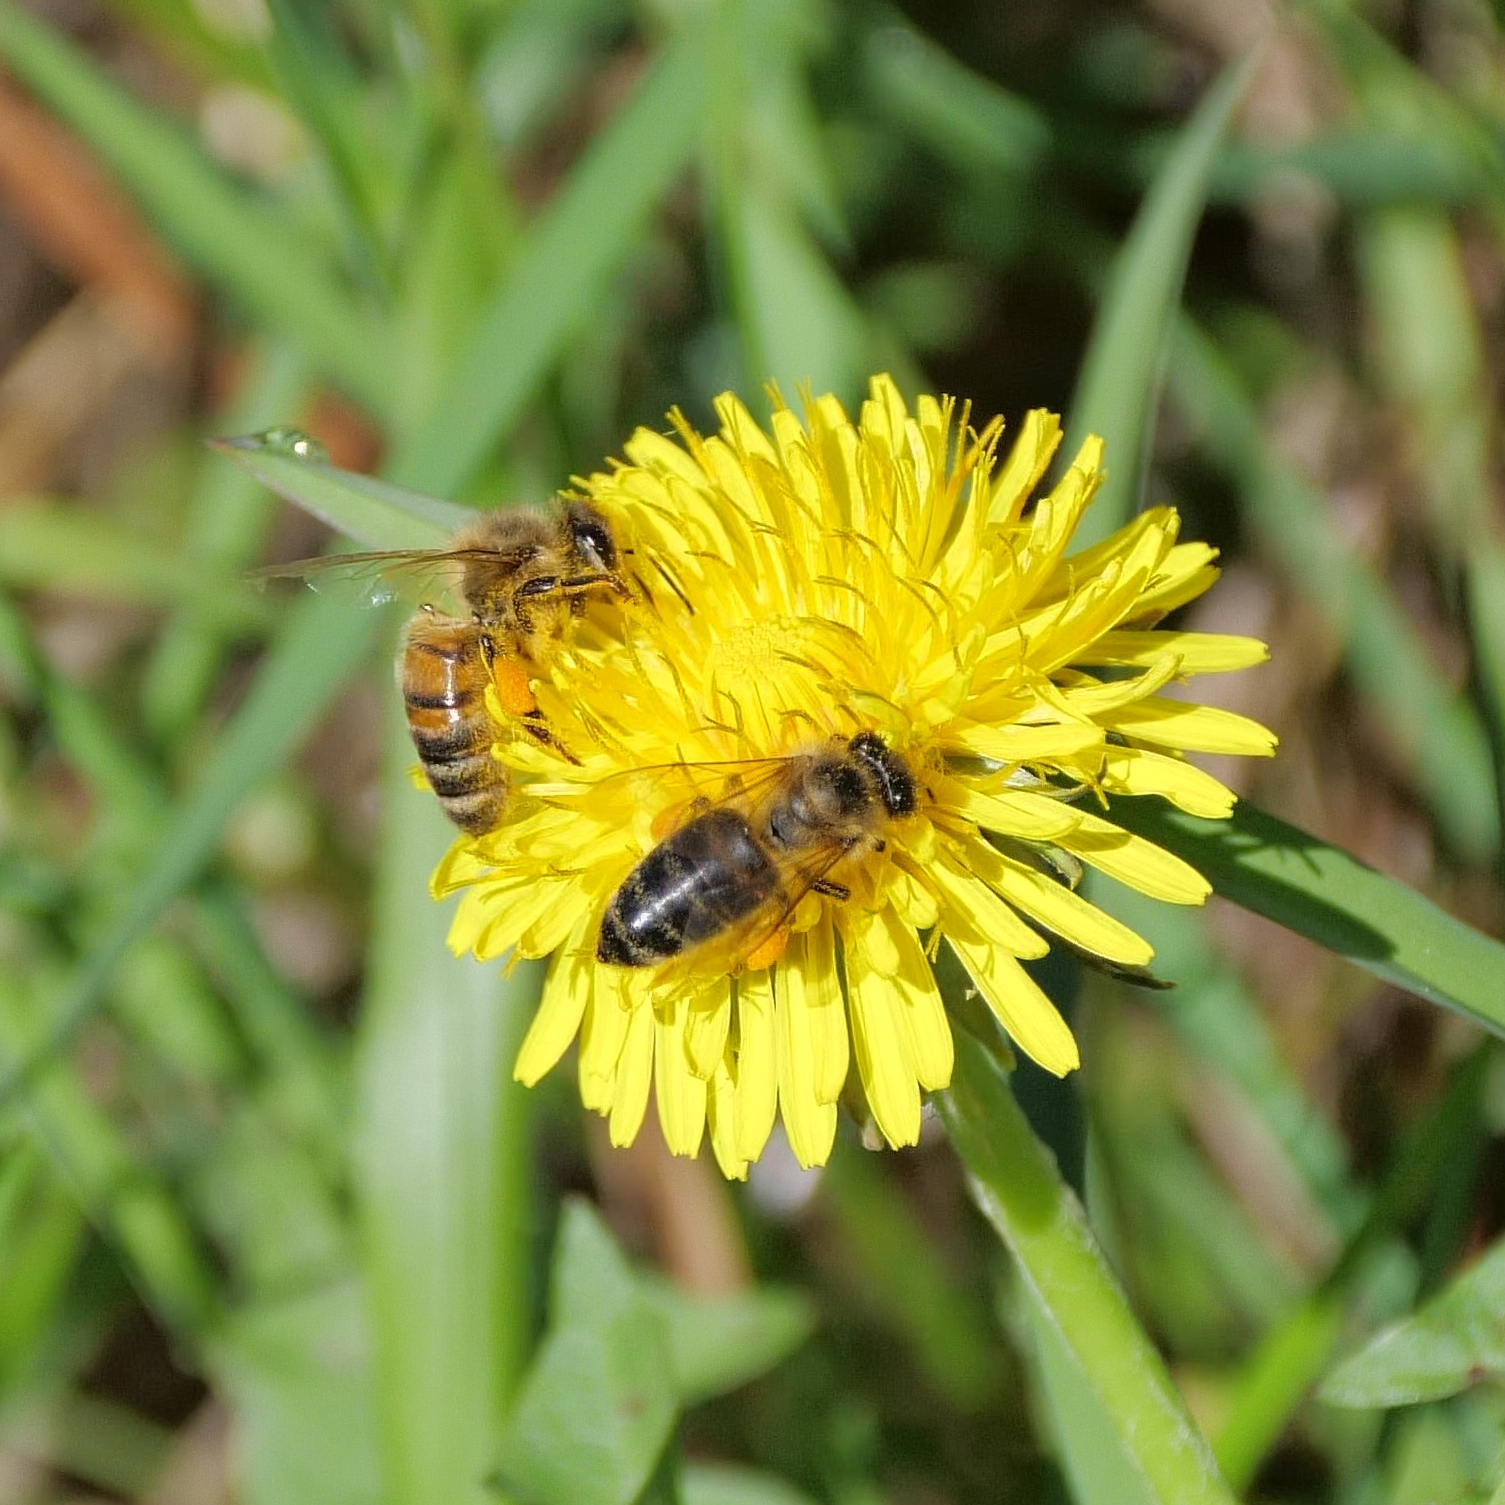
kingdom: Animalia
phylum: Arthropoda
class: Insecta
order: Hymenoptera
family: Apidae
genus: Apis
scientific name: Apis mellifera
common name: Honey bee
